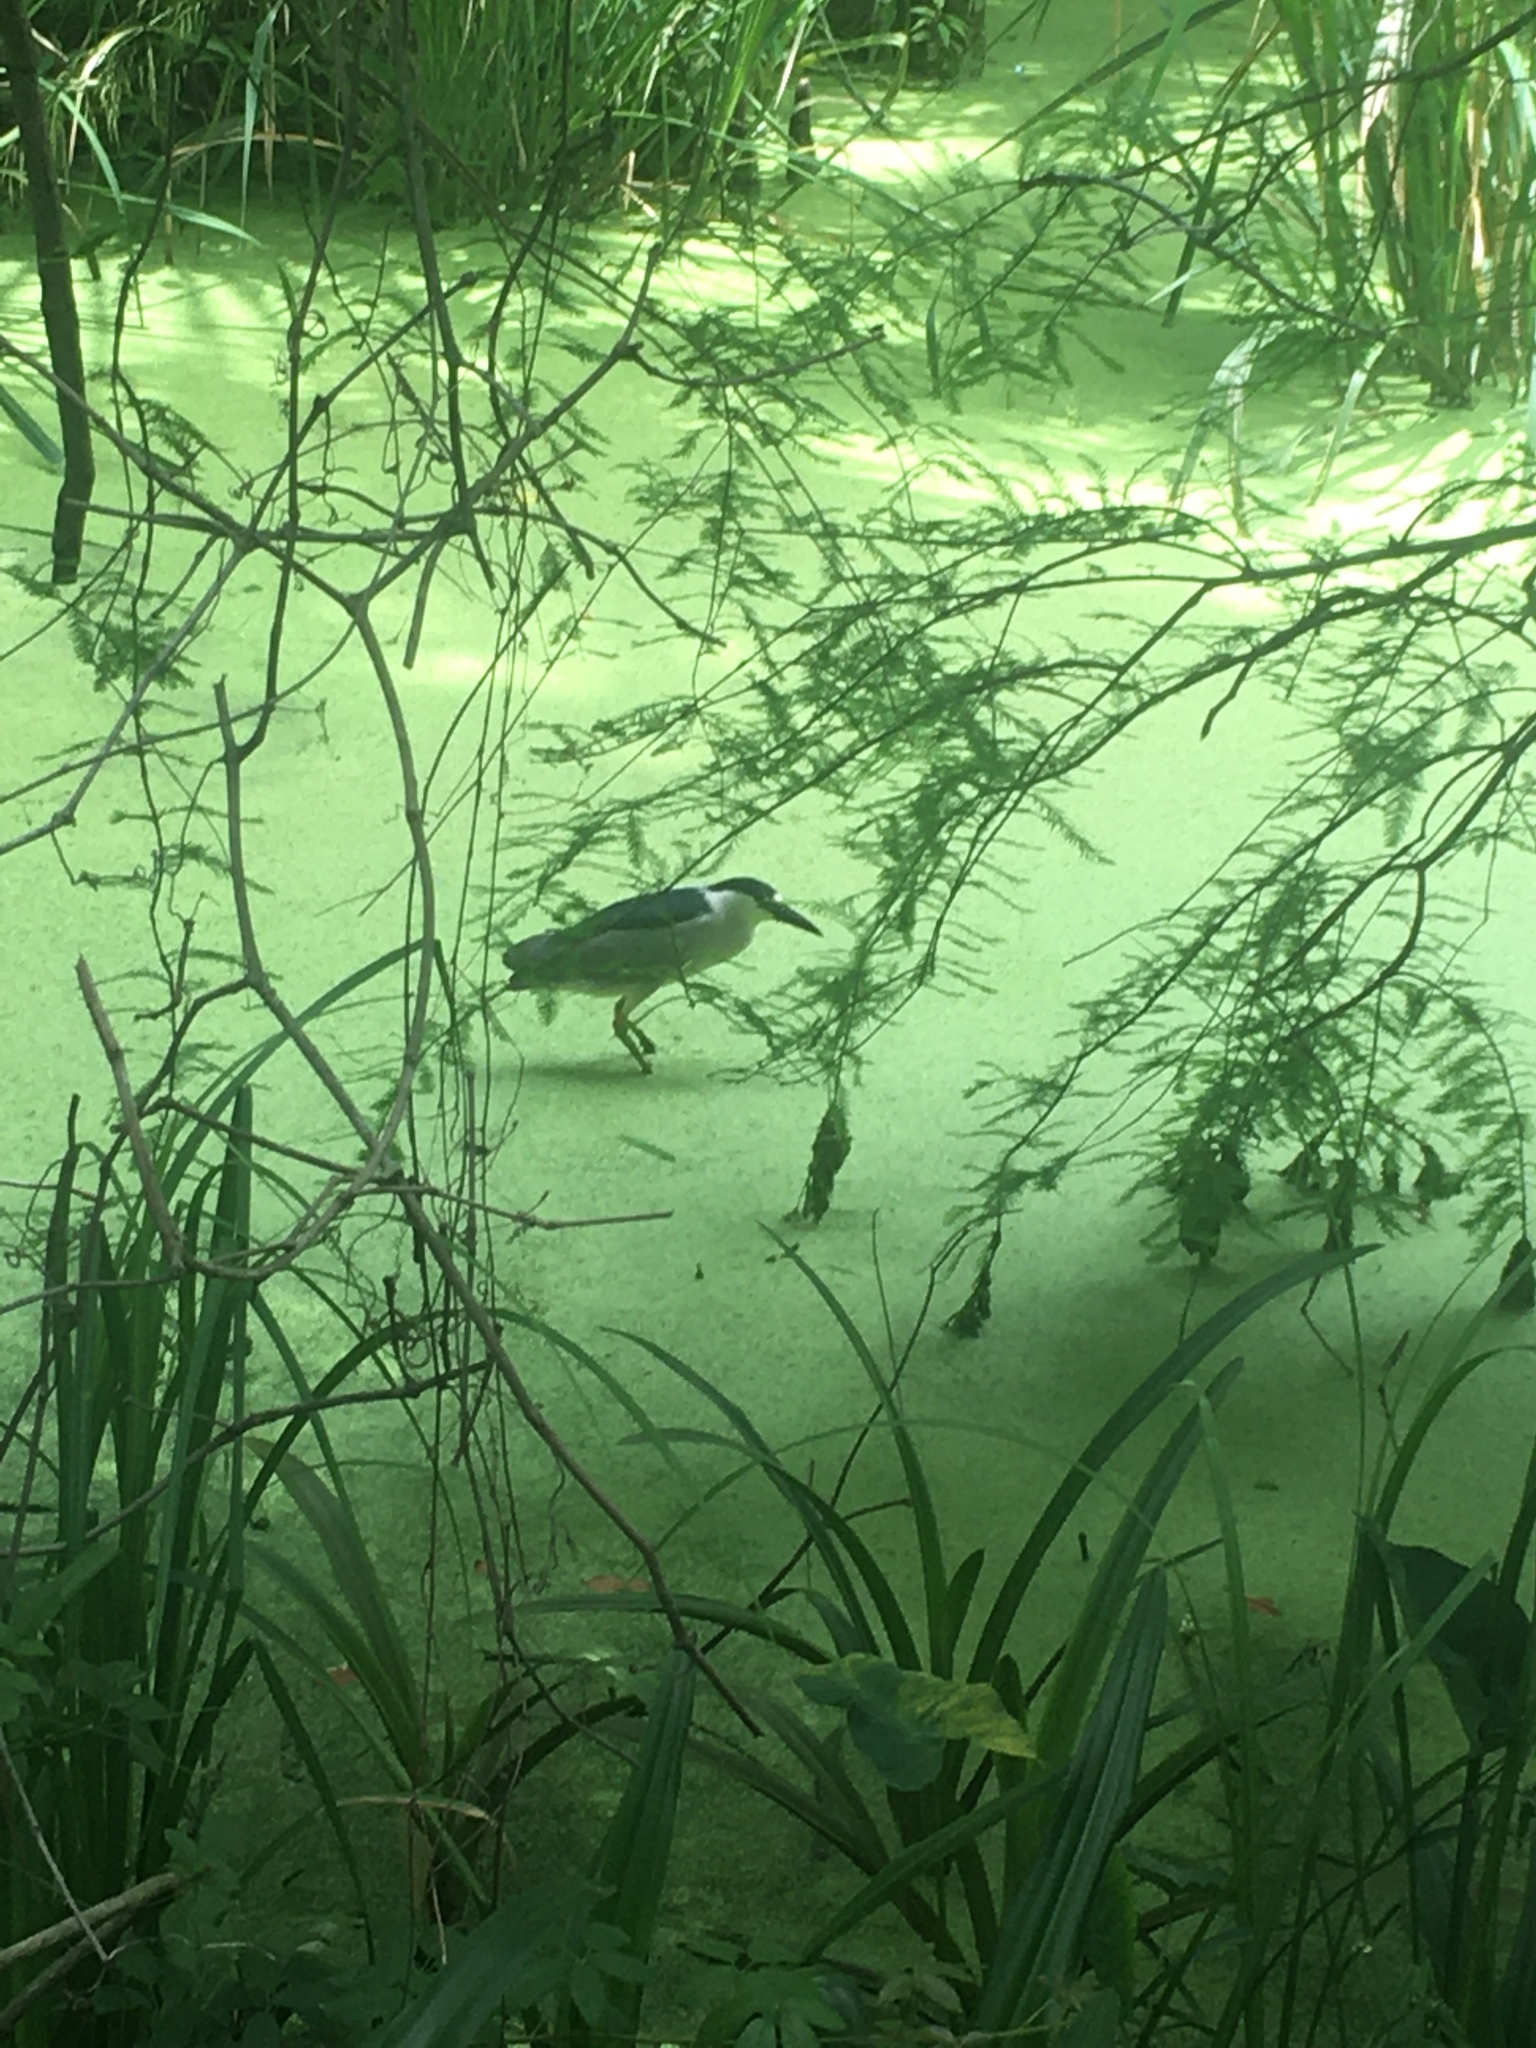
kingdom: Animalia
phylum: Chordata
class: Aves
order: Pelecaniformes
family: Ardeidae
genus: Nycticorax
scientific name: Nycticorax nycticorax
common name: Black-crowned night heron
